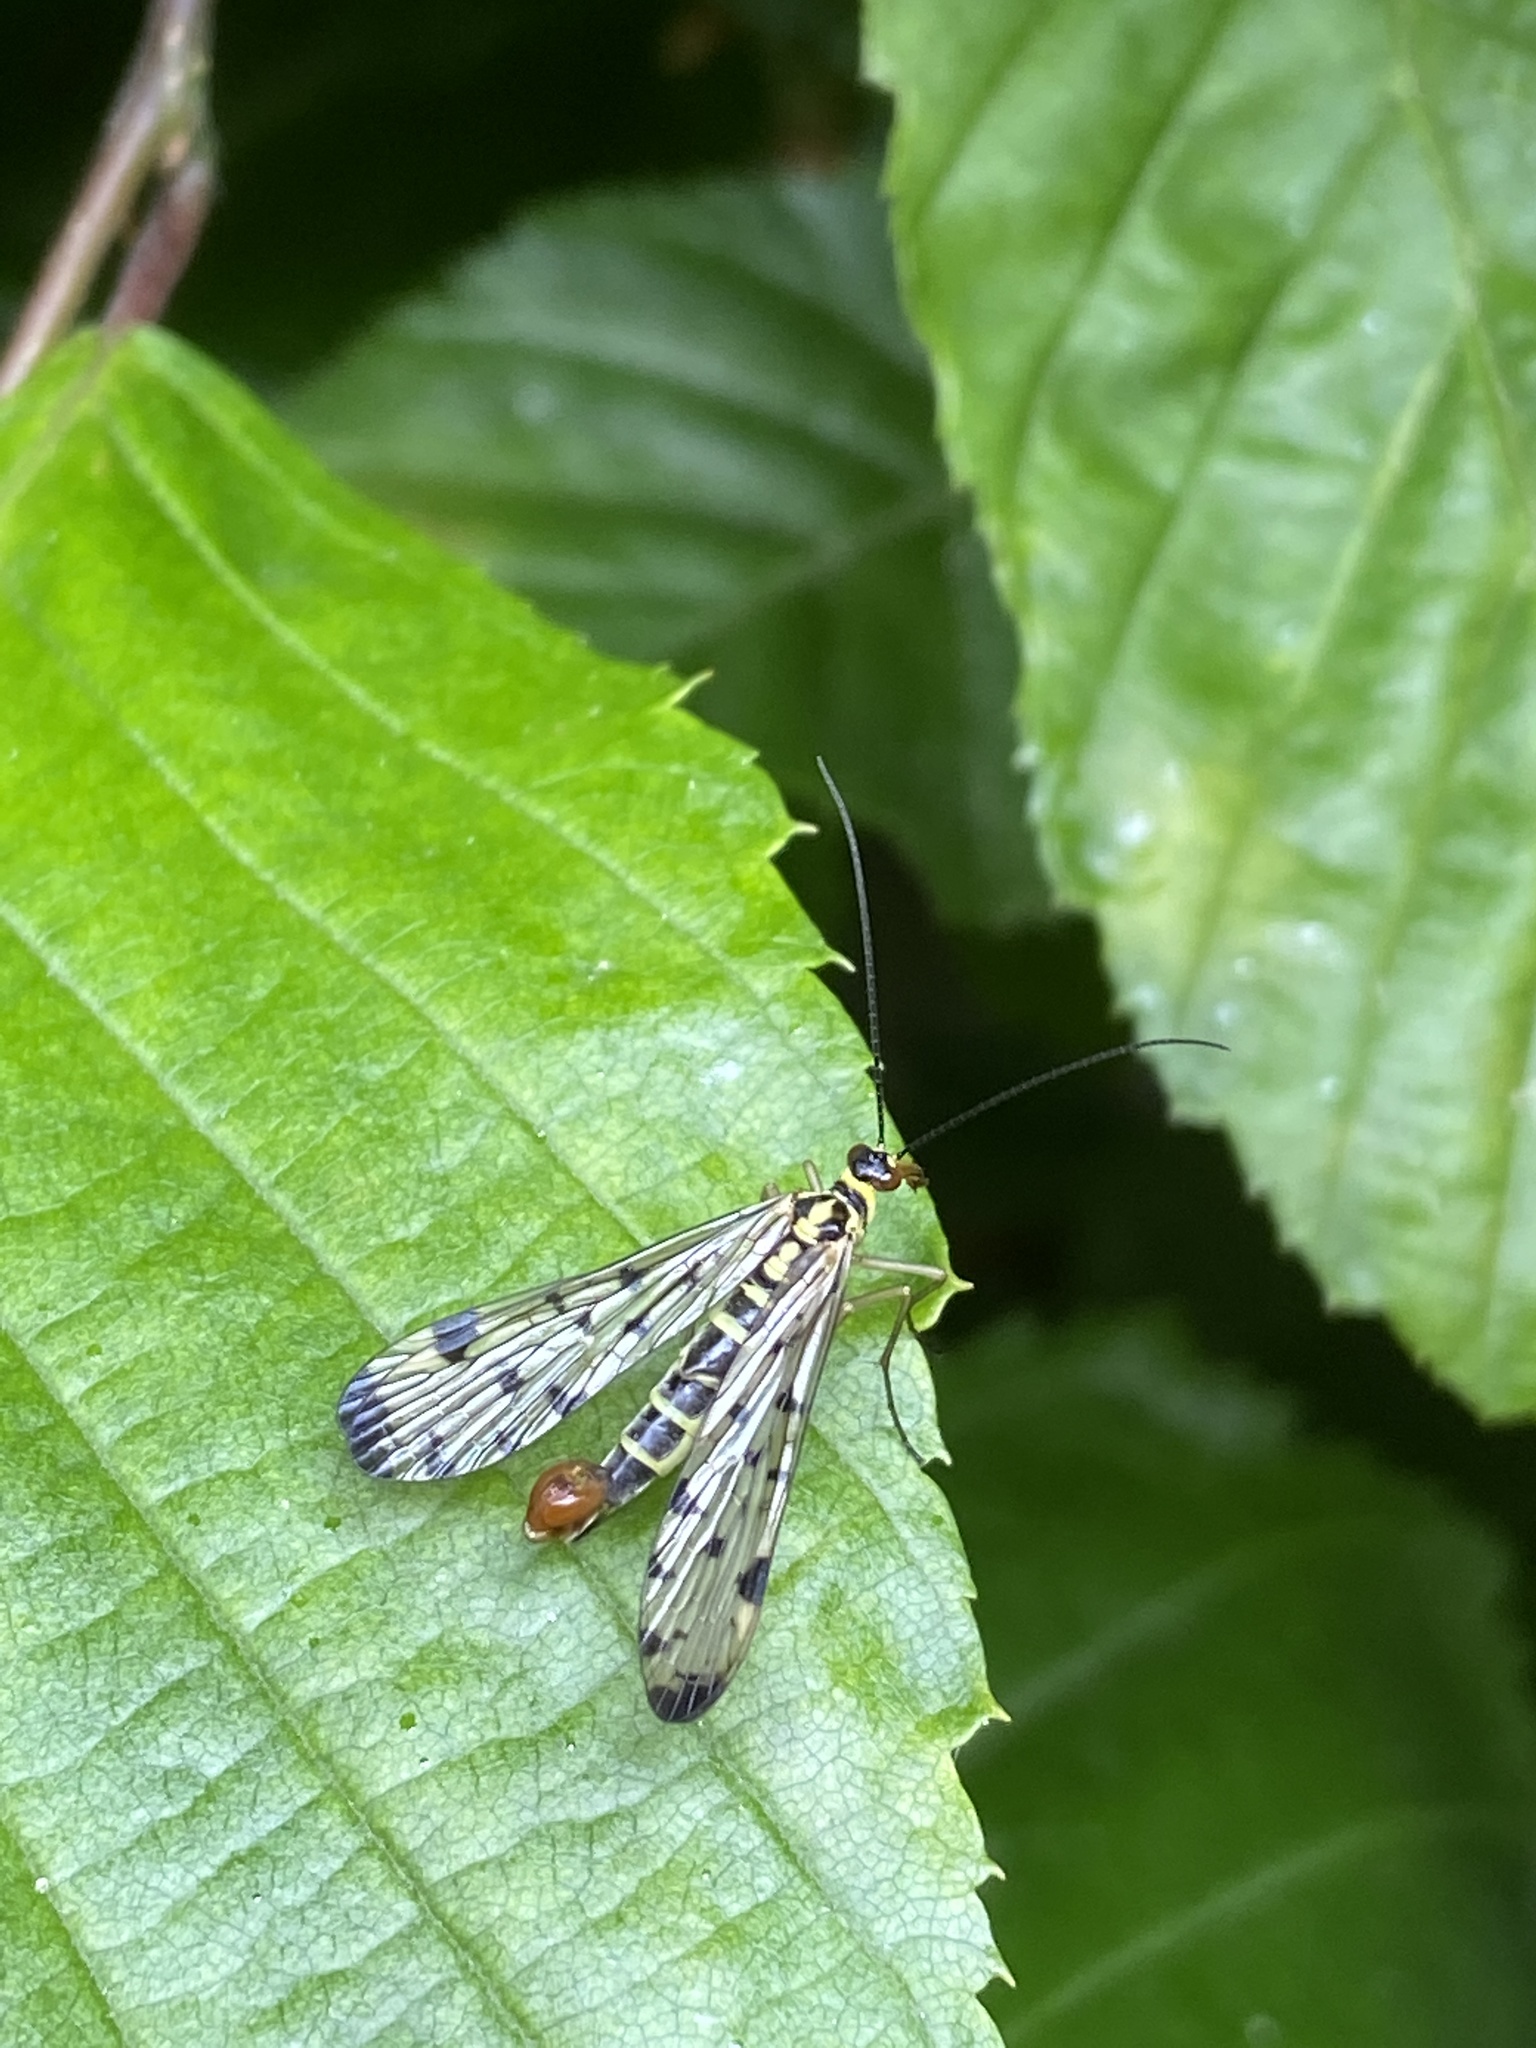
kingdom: Animalia
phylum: Arthropoda
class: Insecta
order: Mecoptera
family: Panorpidae
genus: Panorpa
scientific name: Panorpa germanica
